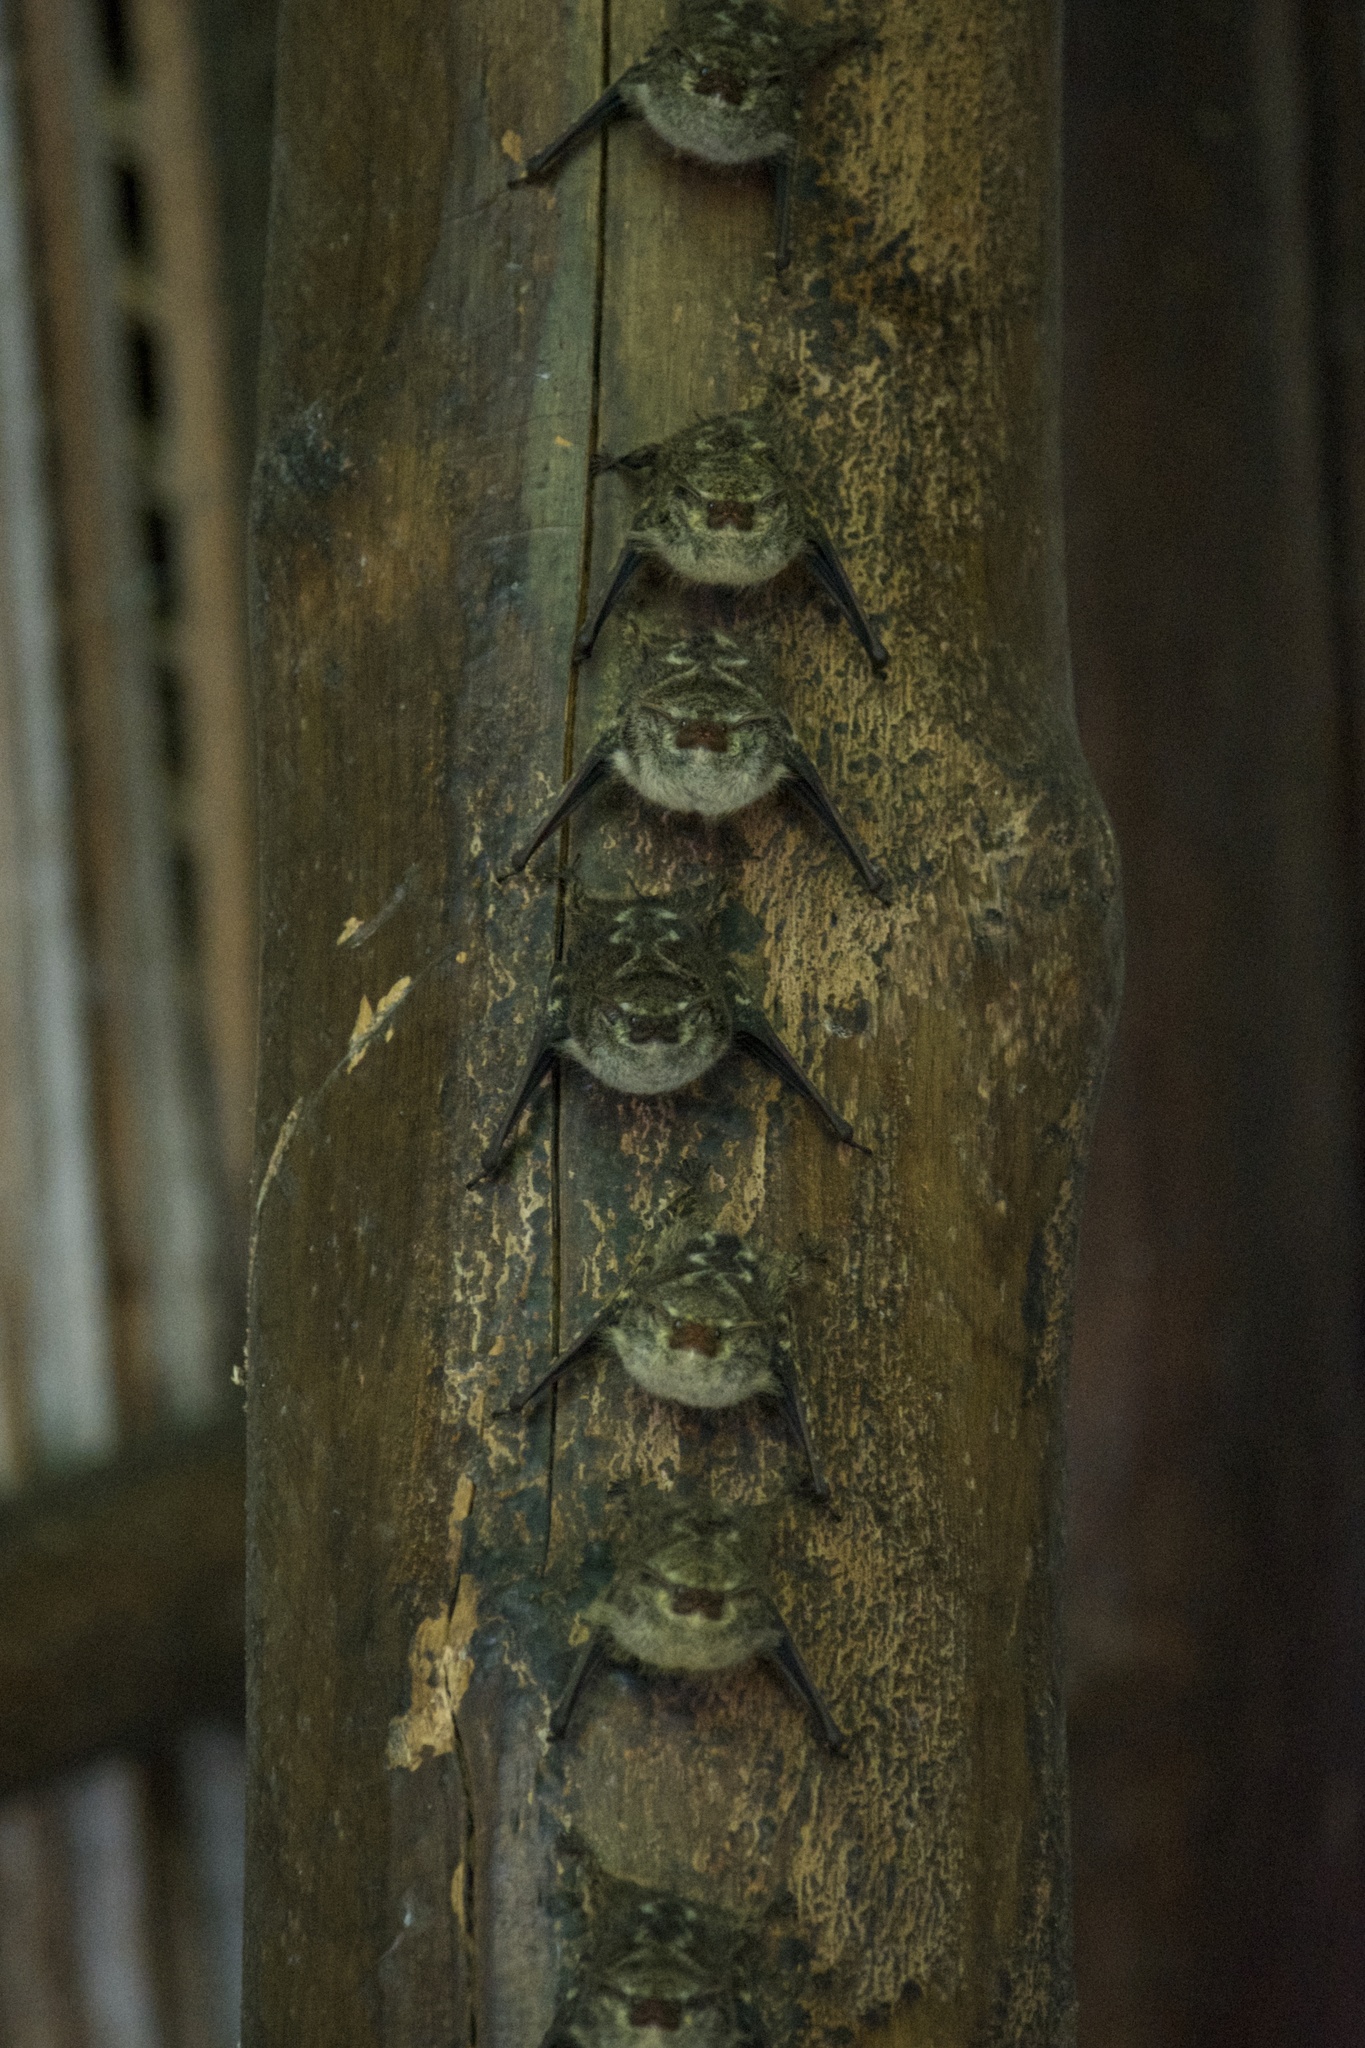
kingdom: Animalia
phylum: Chordata
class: Mammalia
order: Chiroptera
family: Emballonuridae
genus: Rhynchonycteris
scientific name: Rhynchonycteris naso
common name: Proboscis bat
